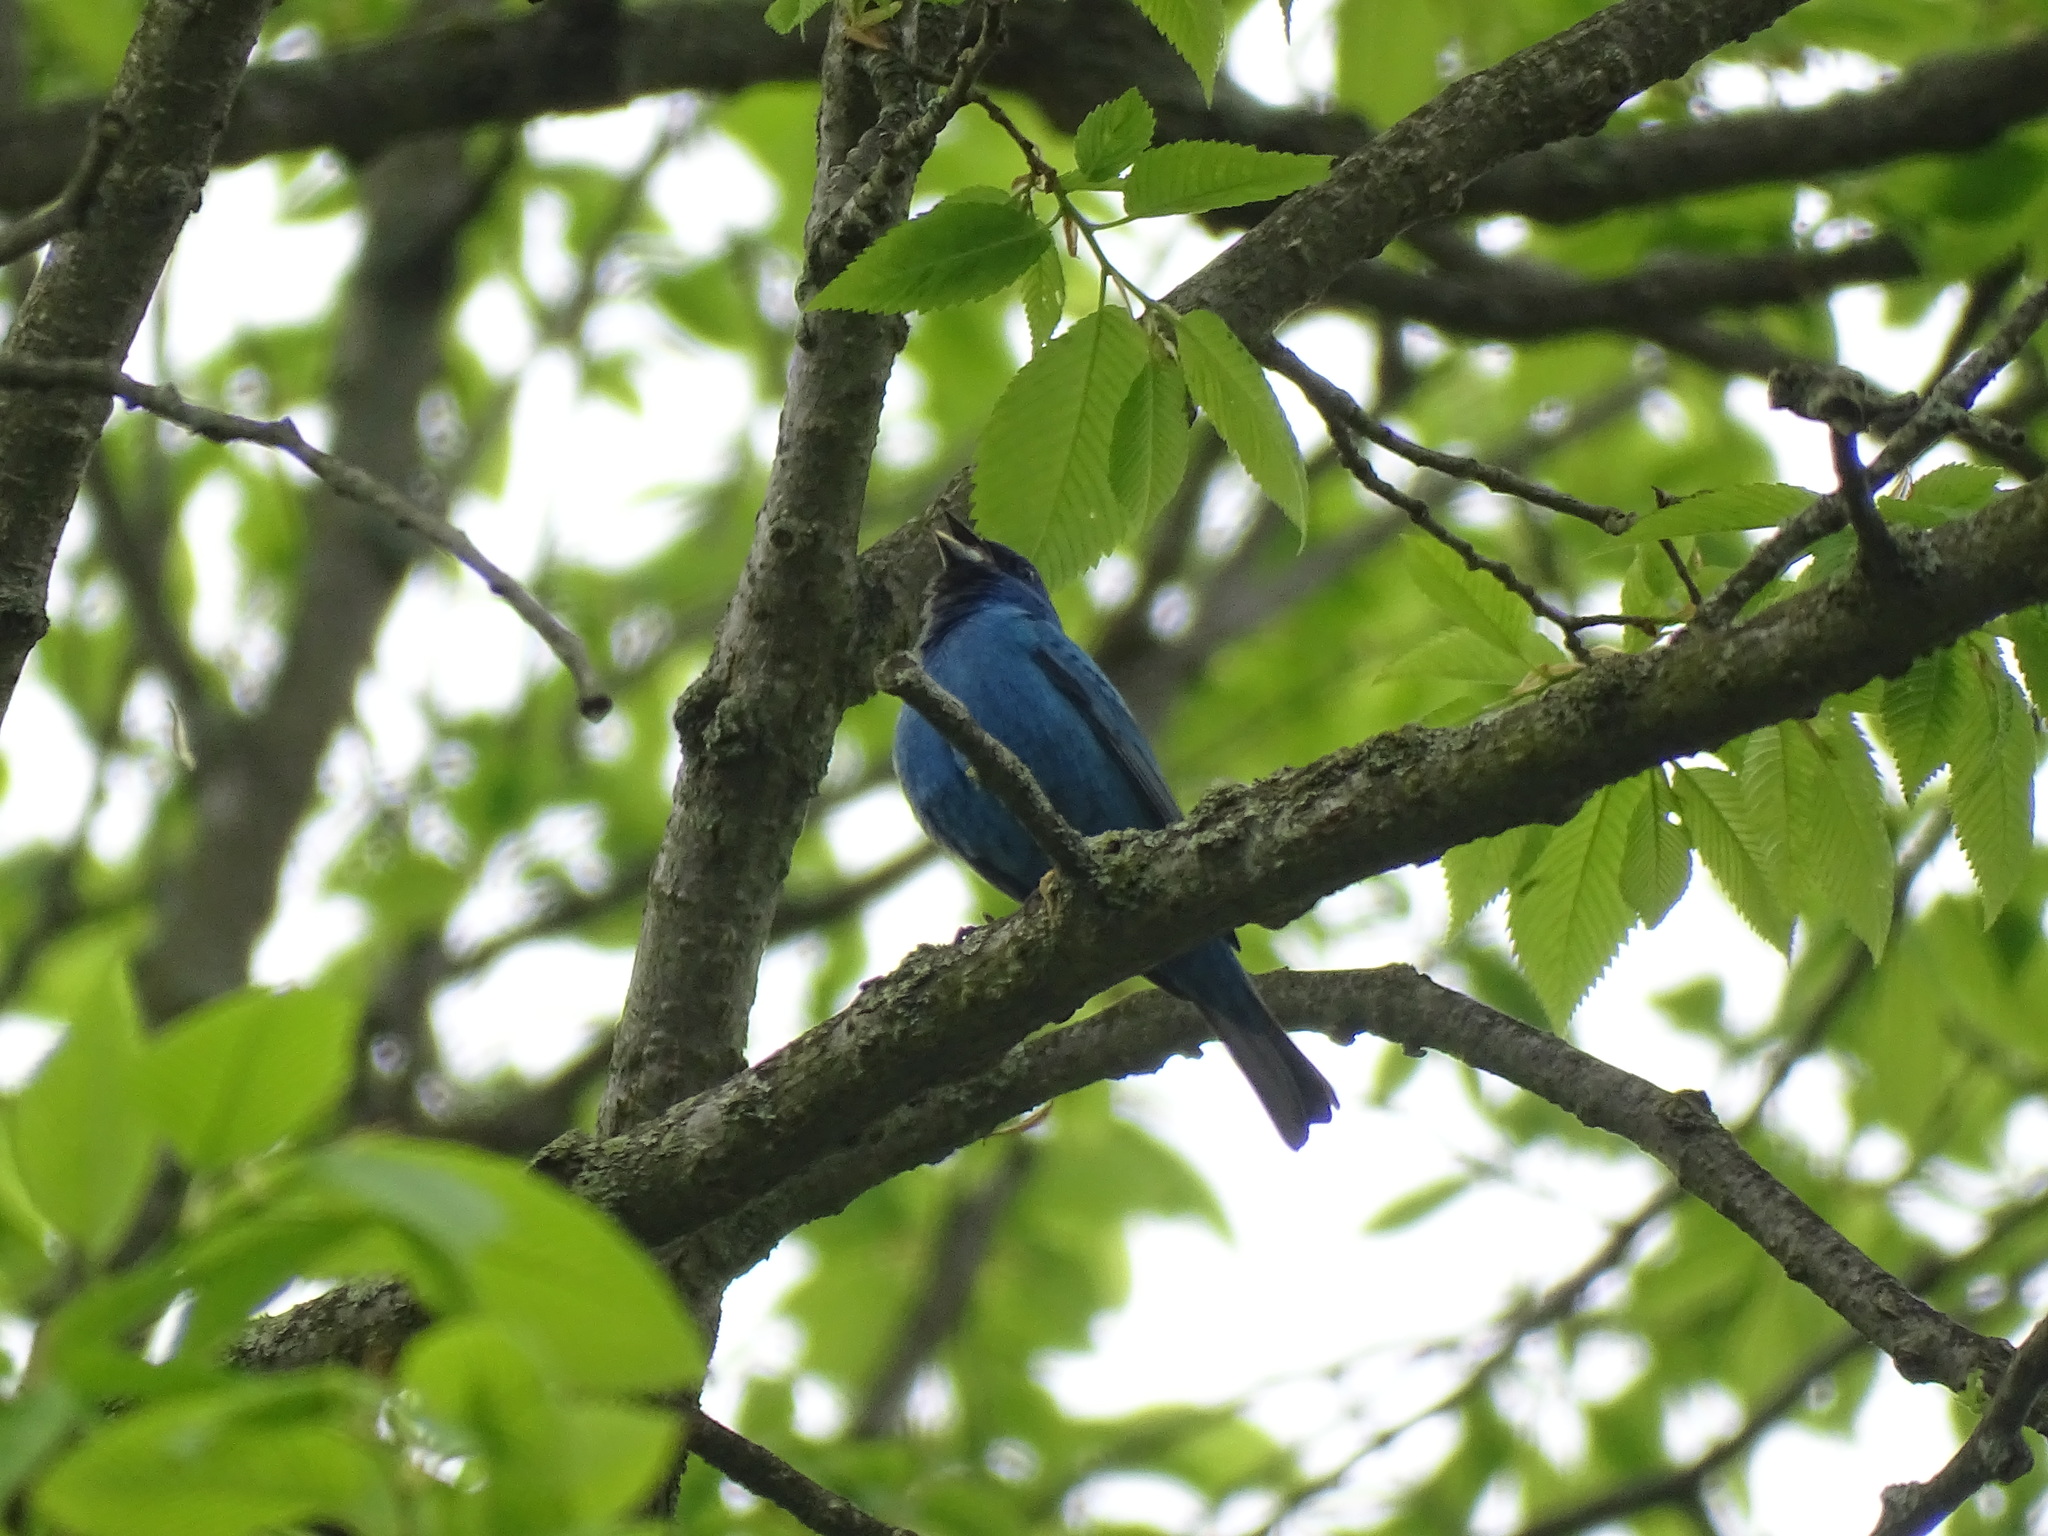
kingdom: Animalia
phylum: Chordata
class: Aves
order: Passeriformes
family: Cardinalidae
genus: Passerina
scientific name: Passerina cyanea
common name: Indigo bunting
